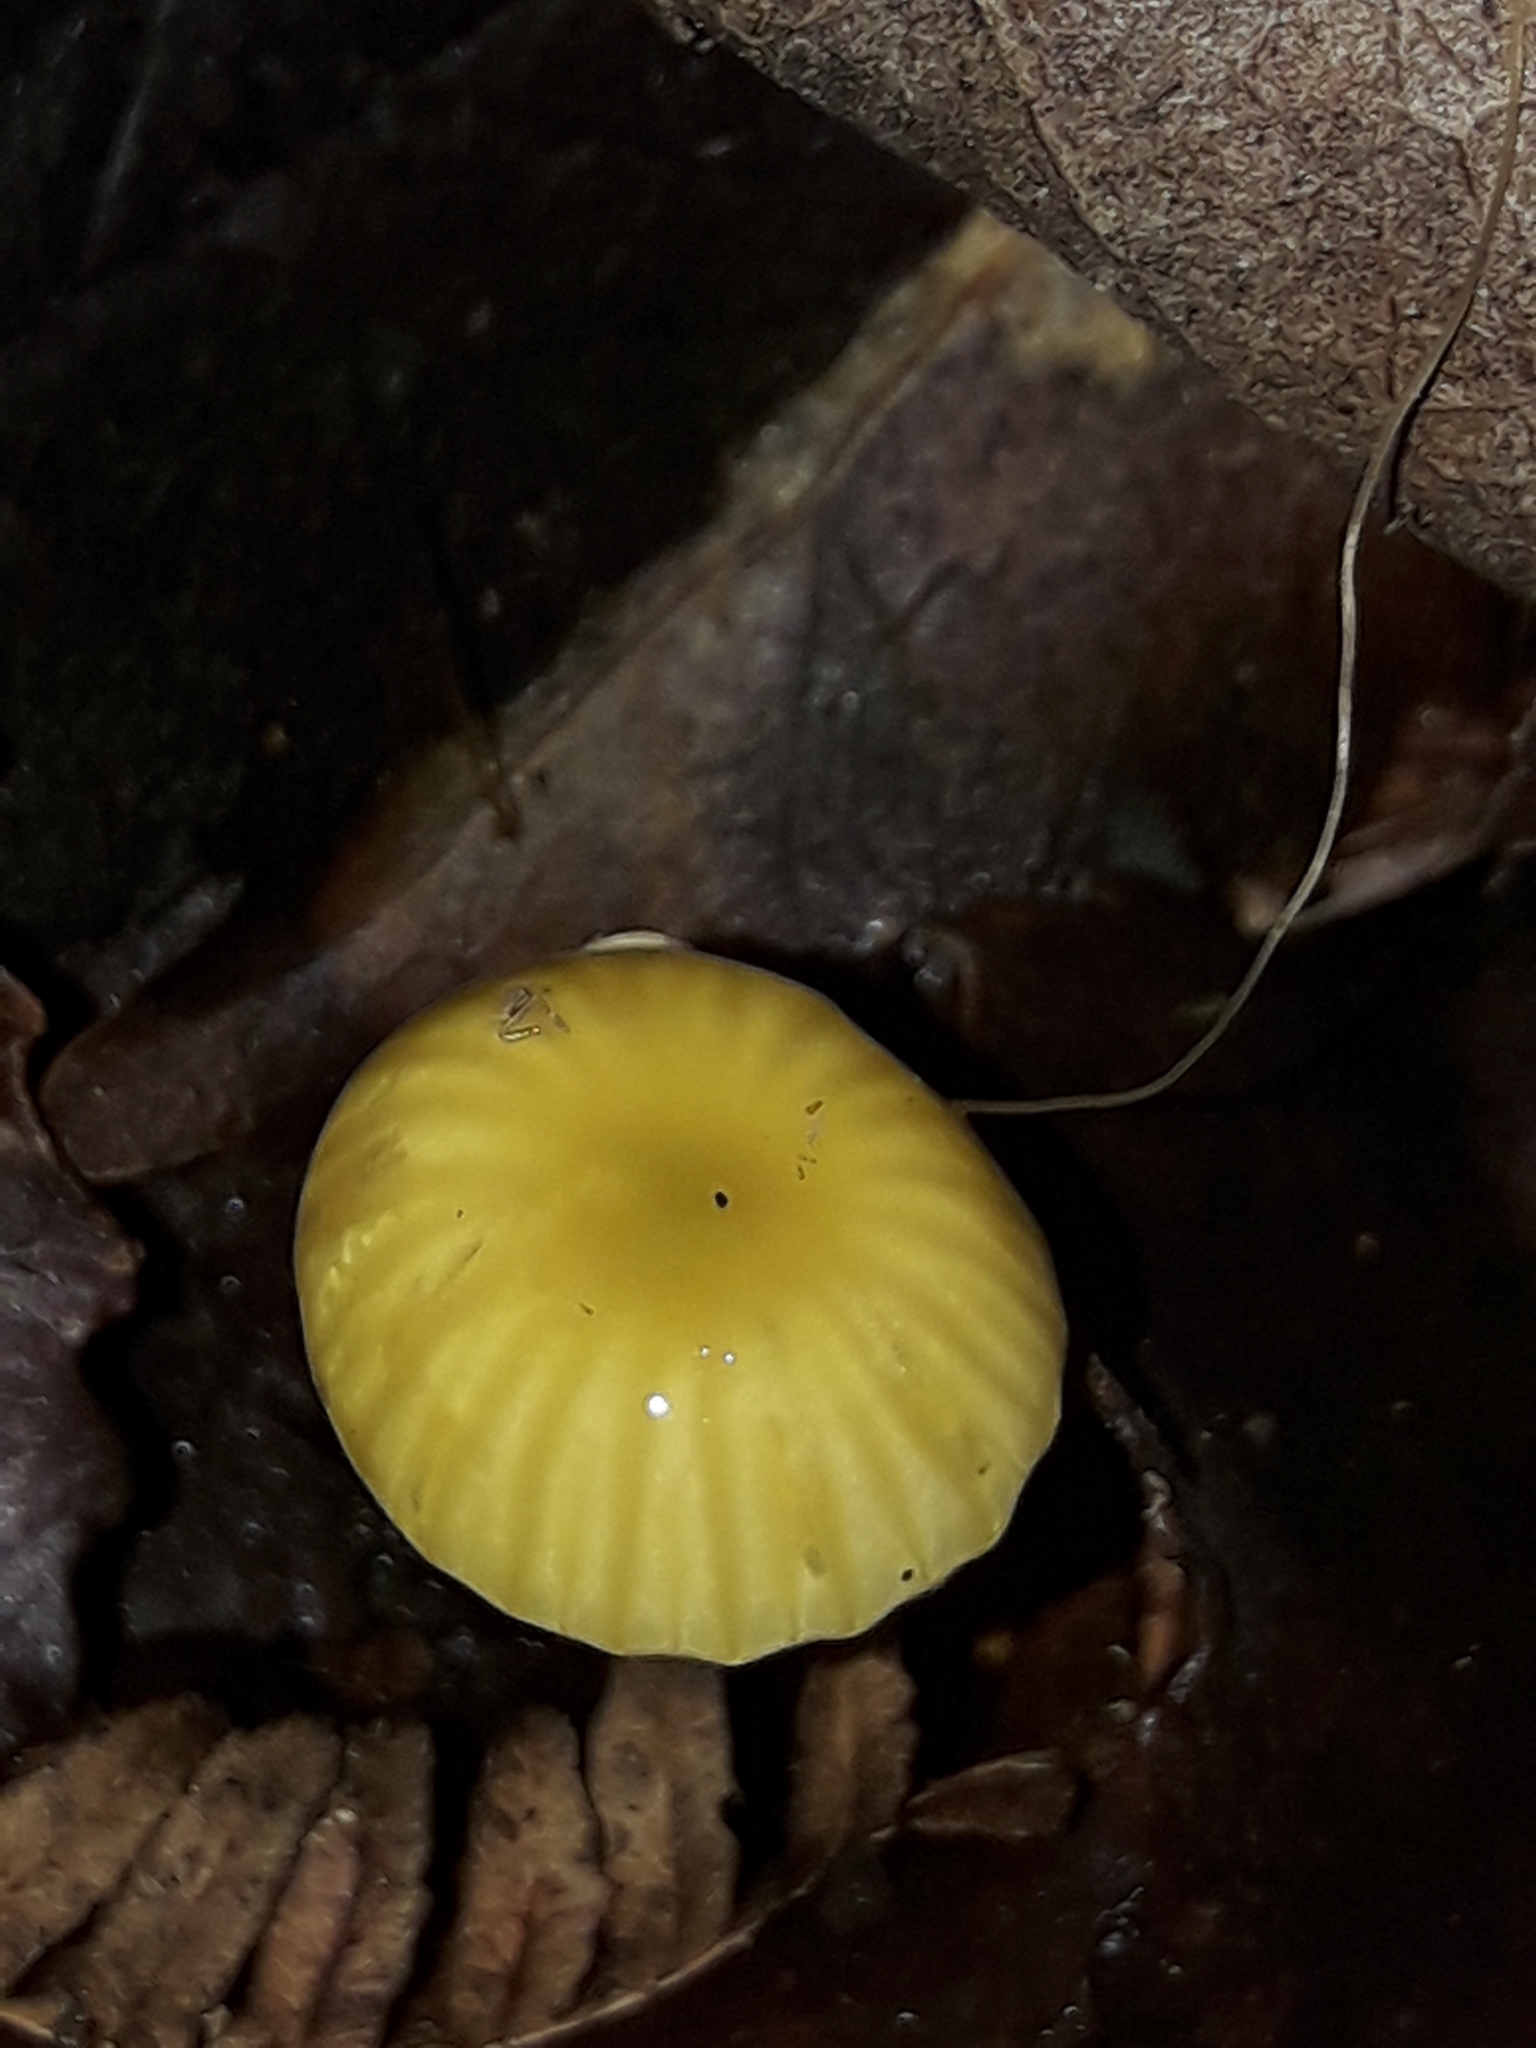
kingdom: Fungi
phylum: Basidiomycota
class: Agaricomycetes
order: Agaricales
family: Hygrophoraceae
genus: Gloioxanthomyces
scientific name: Gloioxanthomyces
